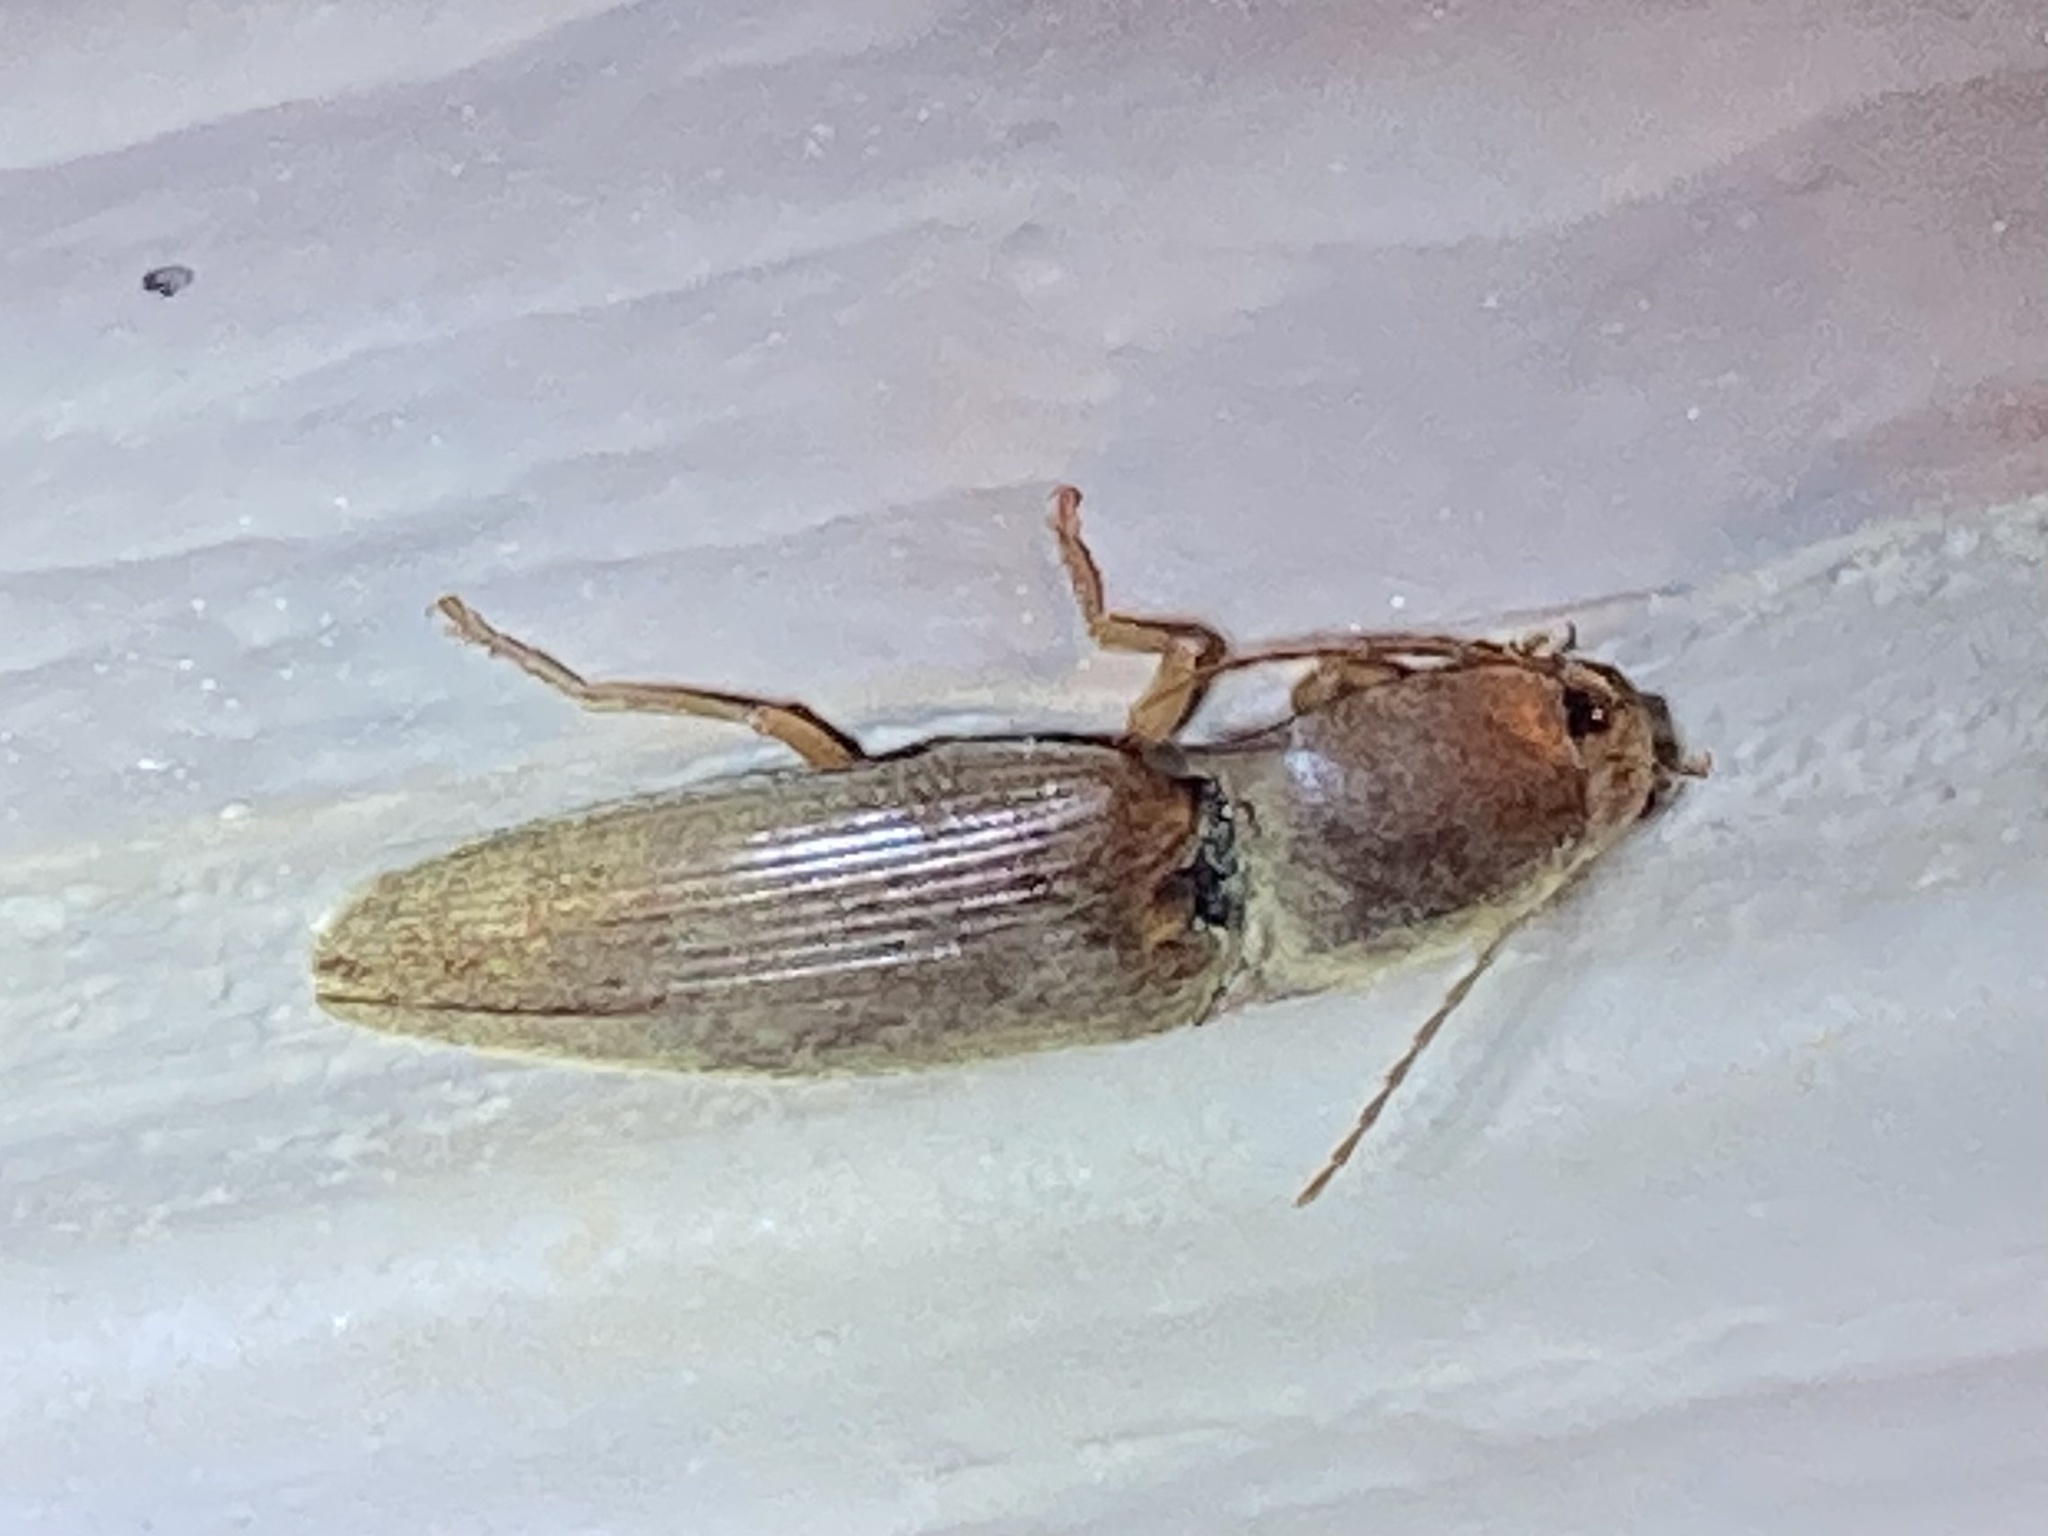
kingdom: Animalia
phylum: Arthropoda
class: Insecta
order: Coleoptera
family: Elateridae
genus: Monocrepidius
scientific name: Monocrepidius lividus
